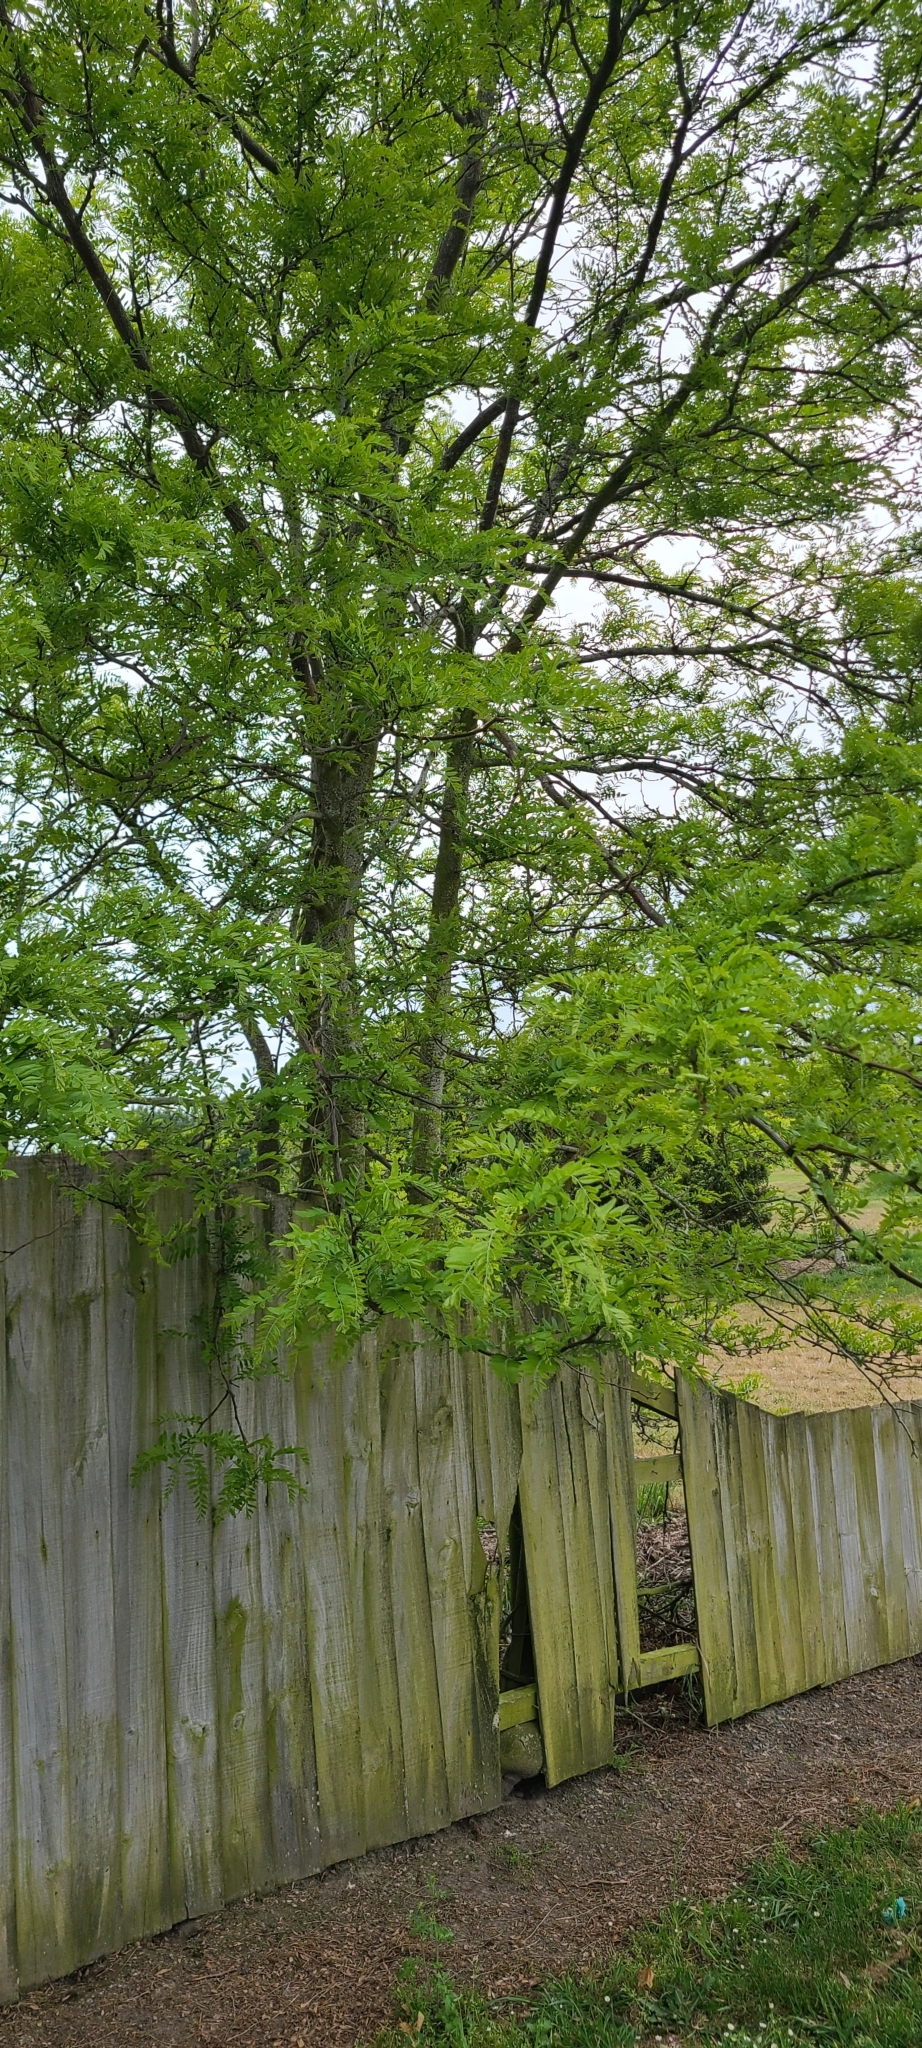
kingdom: Plantae
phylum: Tracheophyta
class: Magnoliopsida
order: Fabales
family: Fabaceae
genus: Gleditsia
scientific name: Gleditsia triacanthos
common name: Common honeylocust
